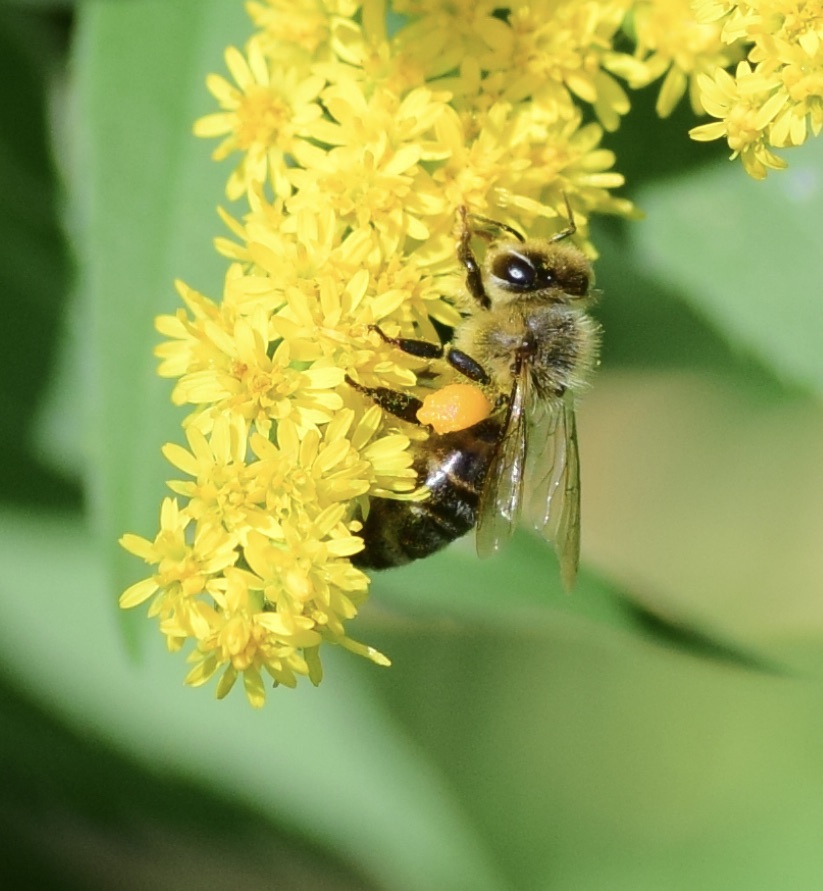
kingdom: Animalia
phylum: Arthropoda
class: Insecta
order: Hymenoptera
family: Apidae
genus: Apis
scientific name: Apis mellifera
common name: Honey bee
